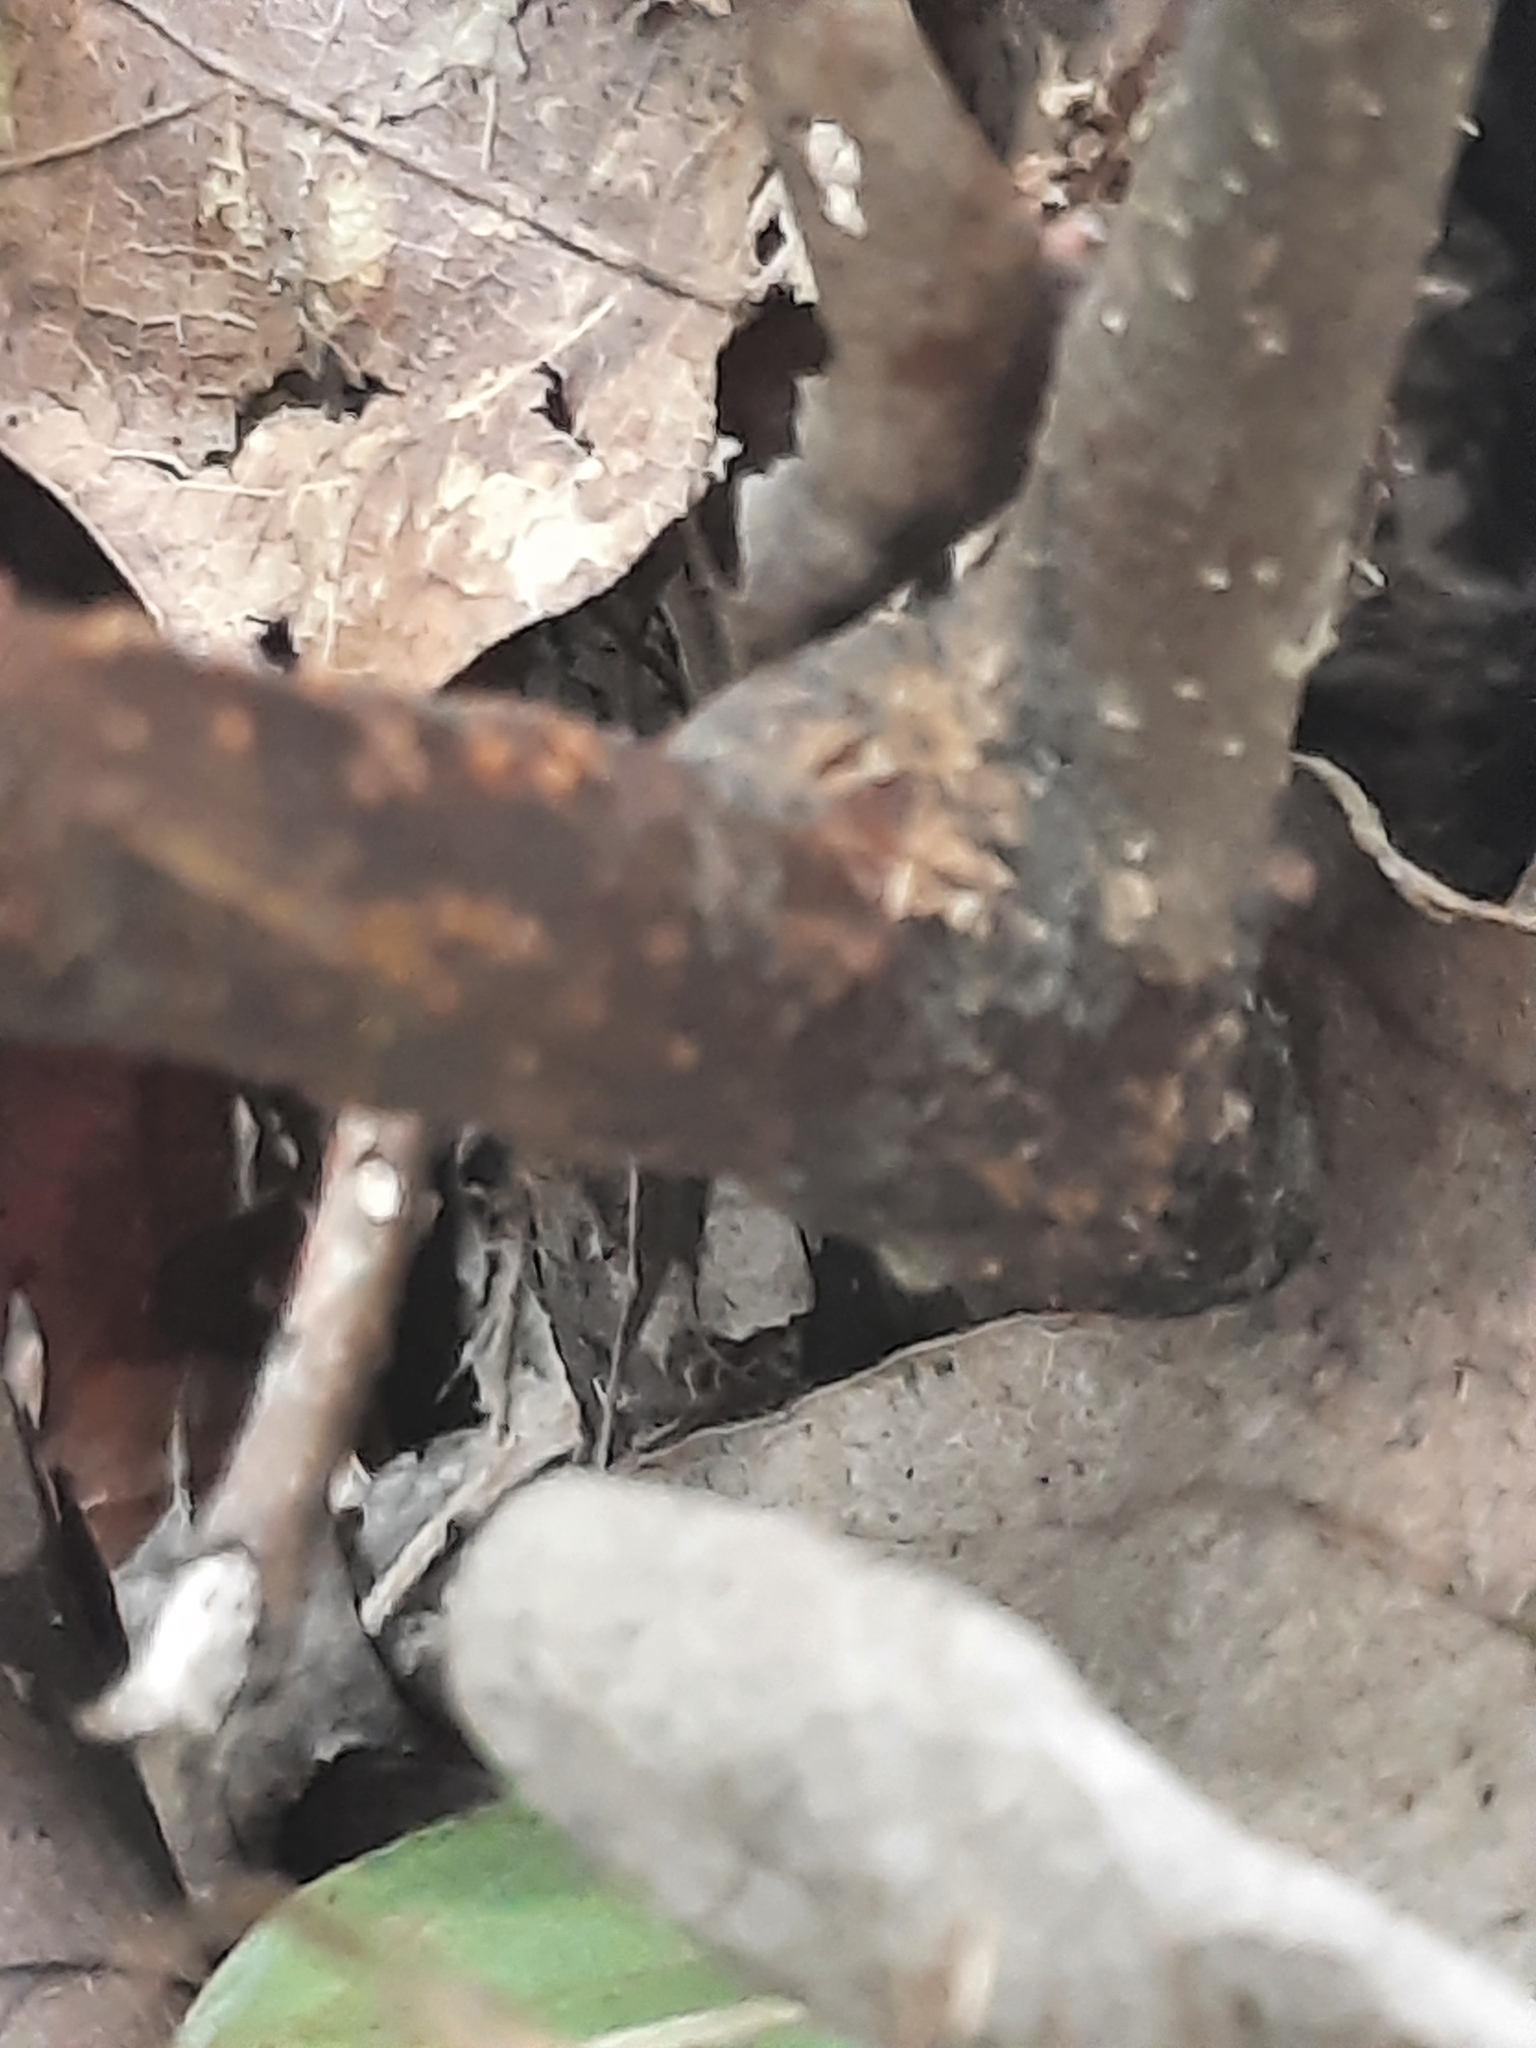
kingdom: Plantae
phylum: Tracheophyta
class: Magnoliopsida
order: Fagales
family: Fagaceae
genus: Castanea
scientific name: Castanea dentata
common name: American chestnut
